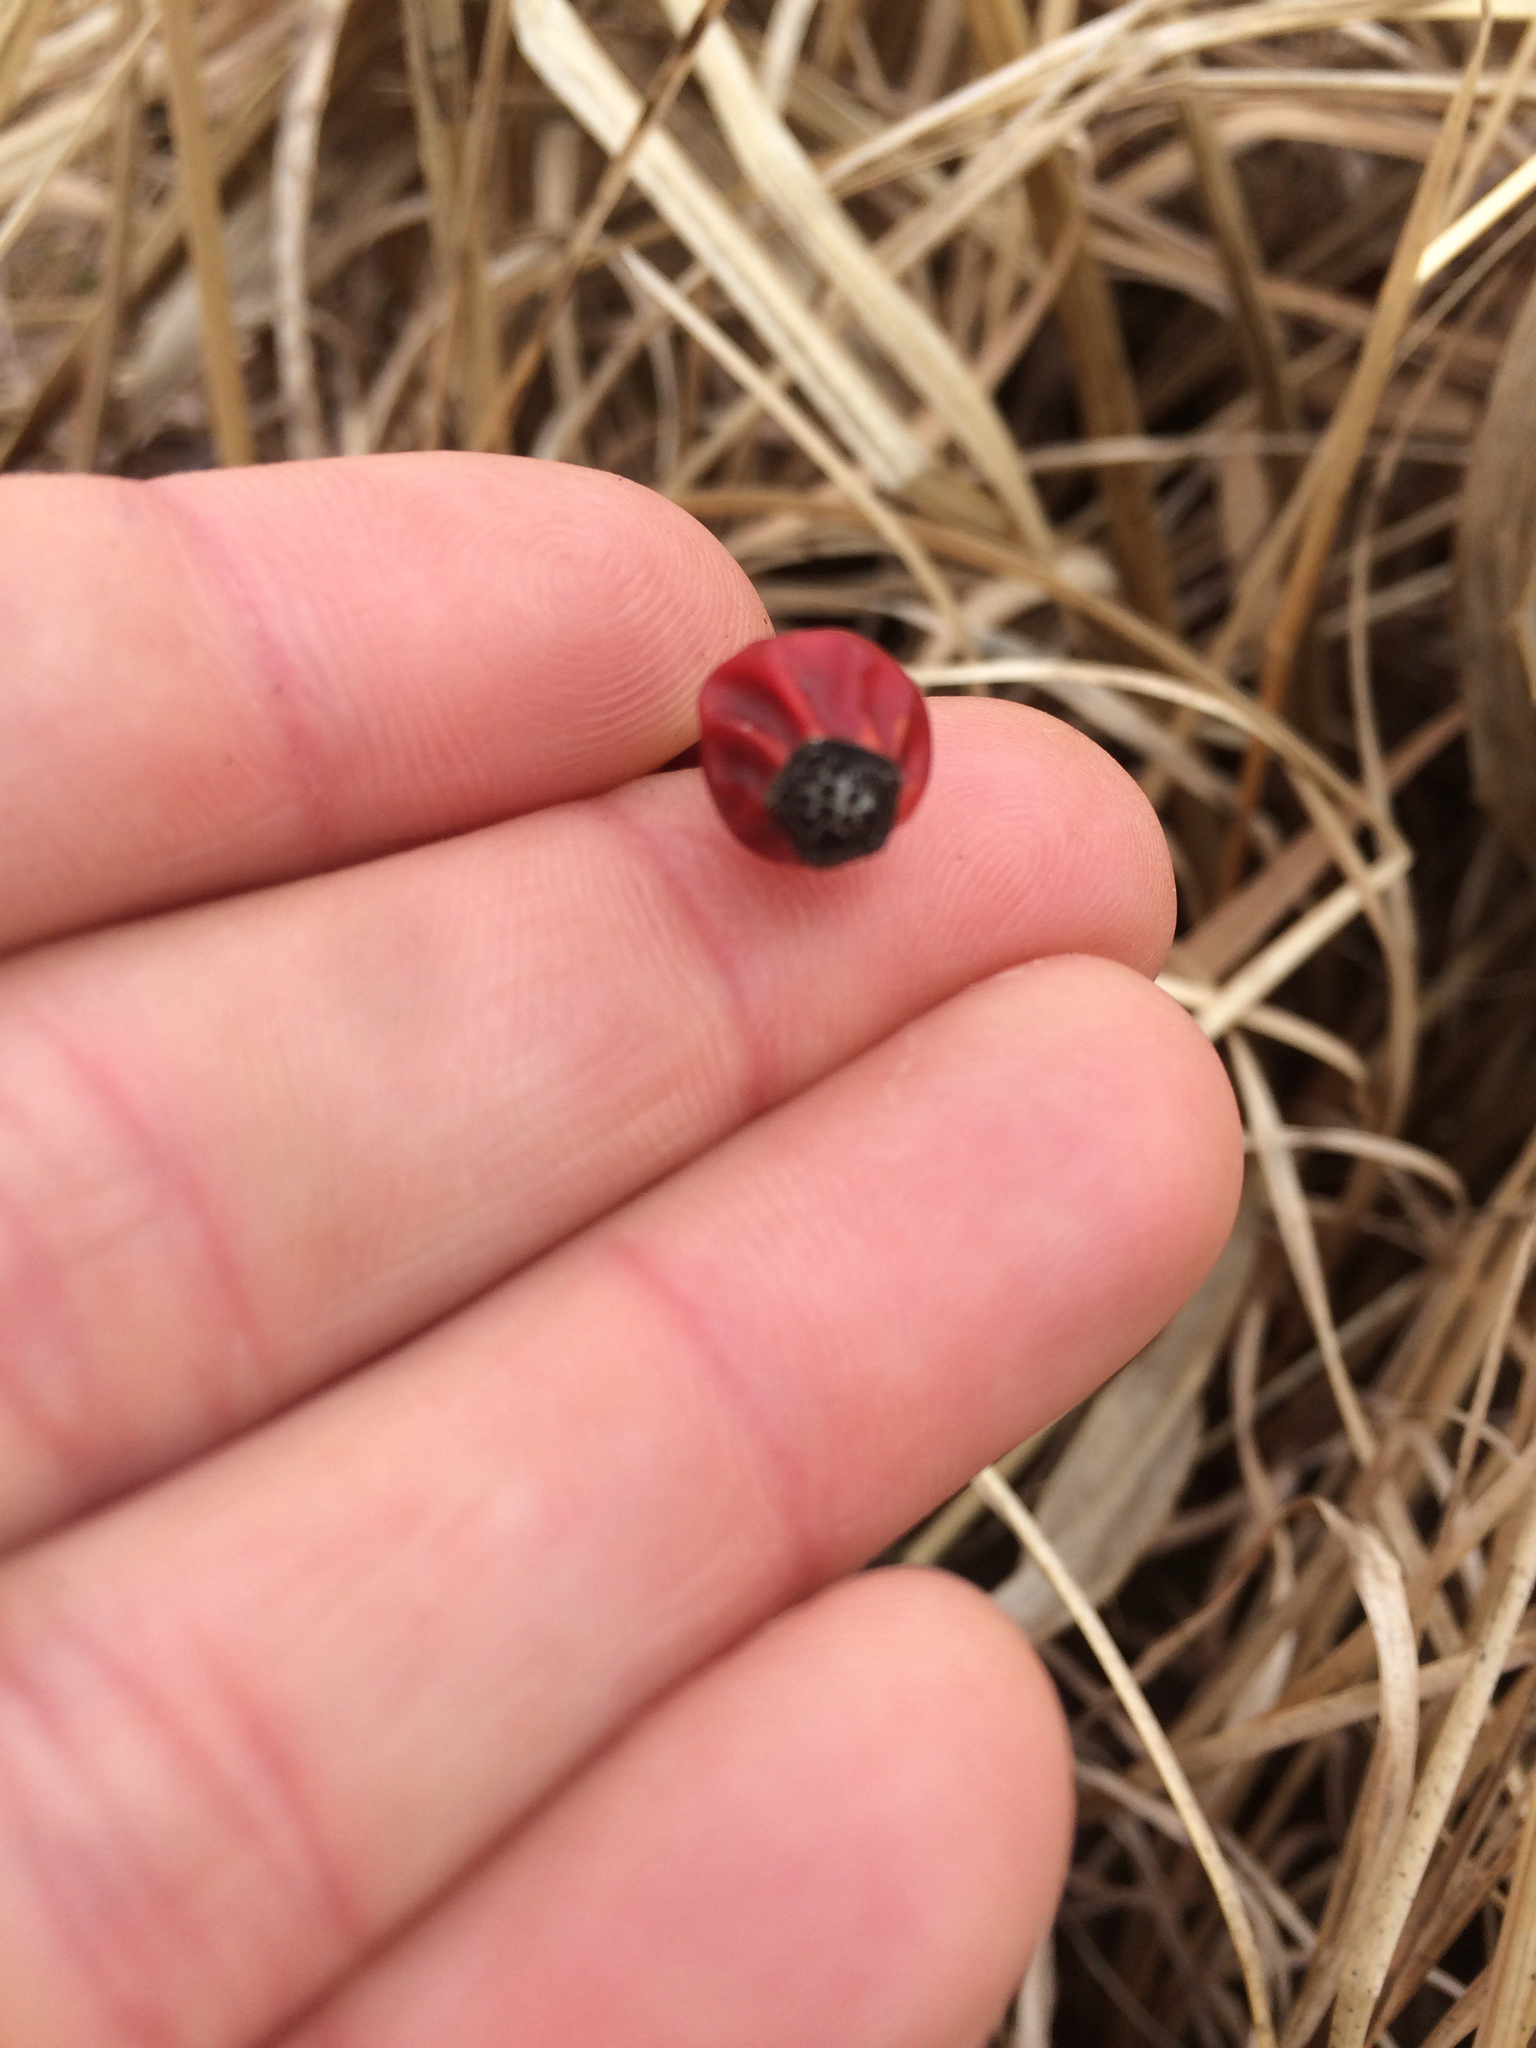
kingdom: Plantae
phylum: Tracheophyta
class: Magnoliopsida
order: Rosales
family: Rosaceae
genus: Rosa
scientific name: Rosa carolina
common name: Pasture rose
